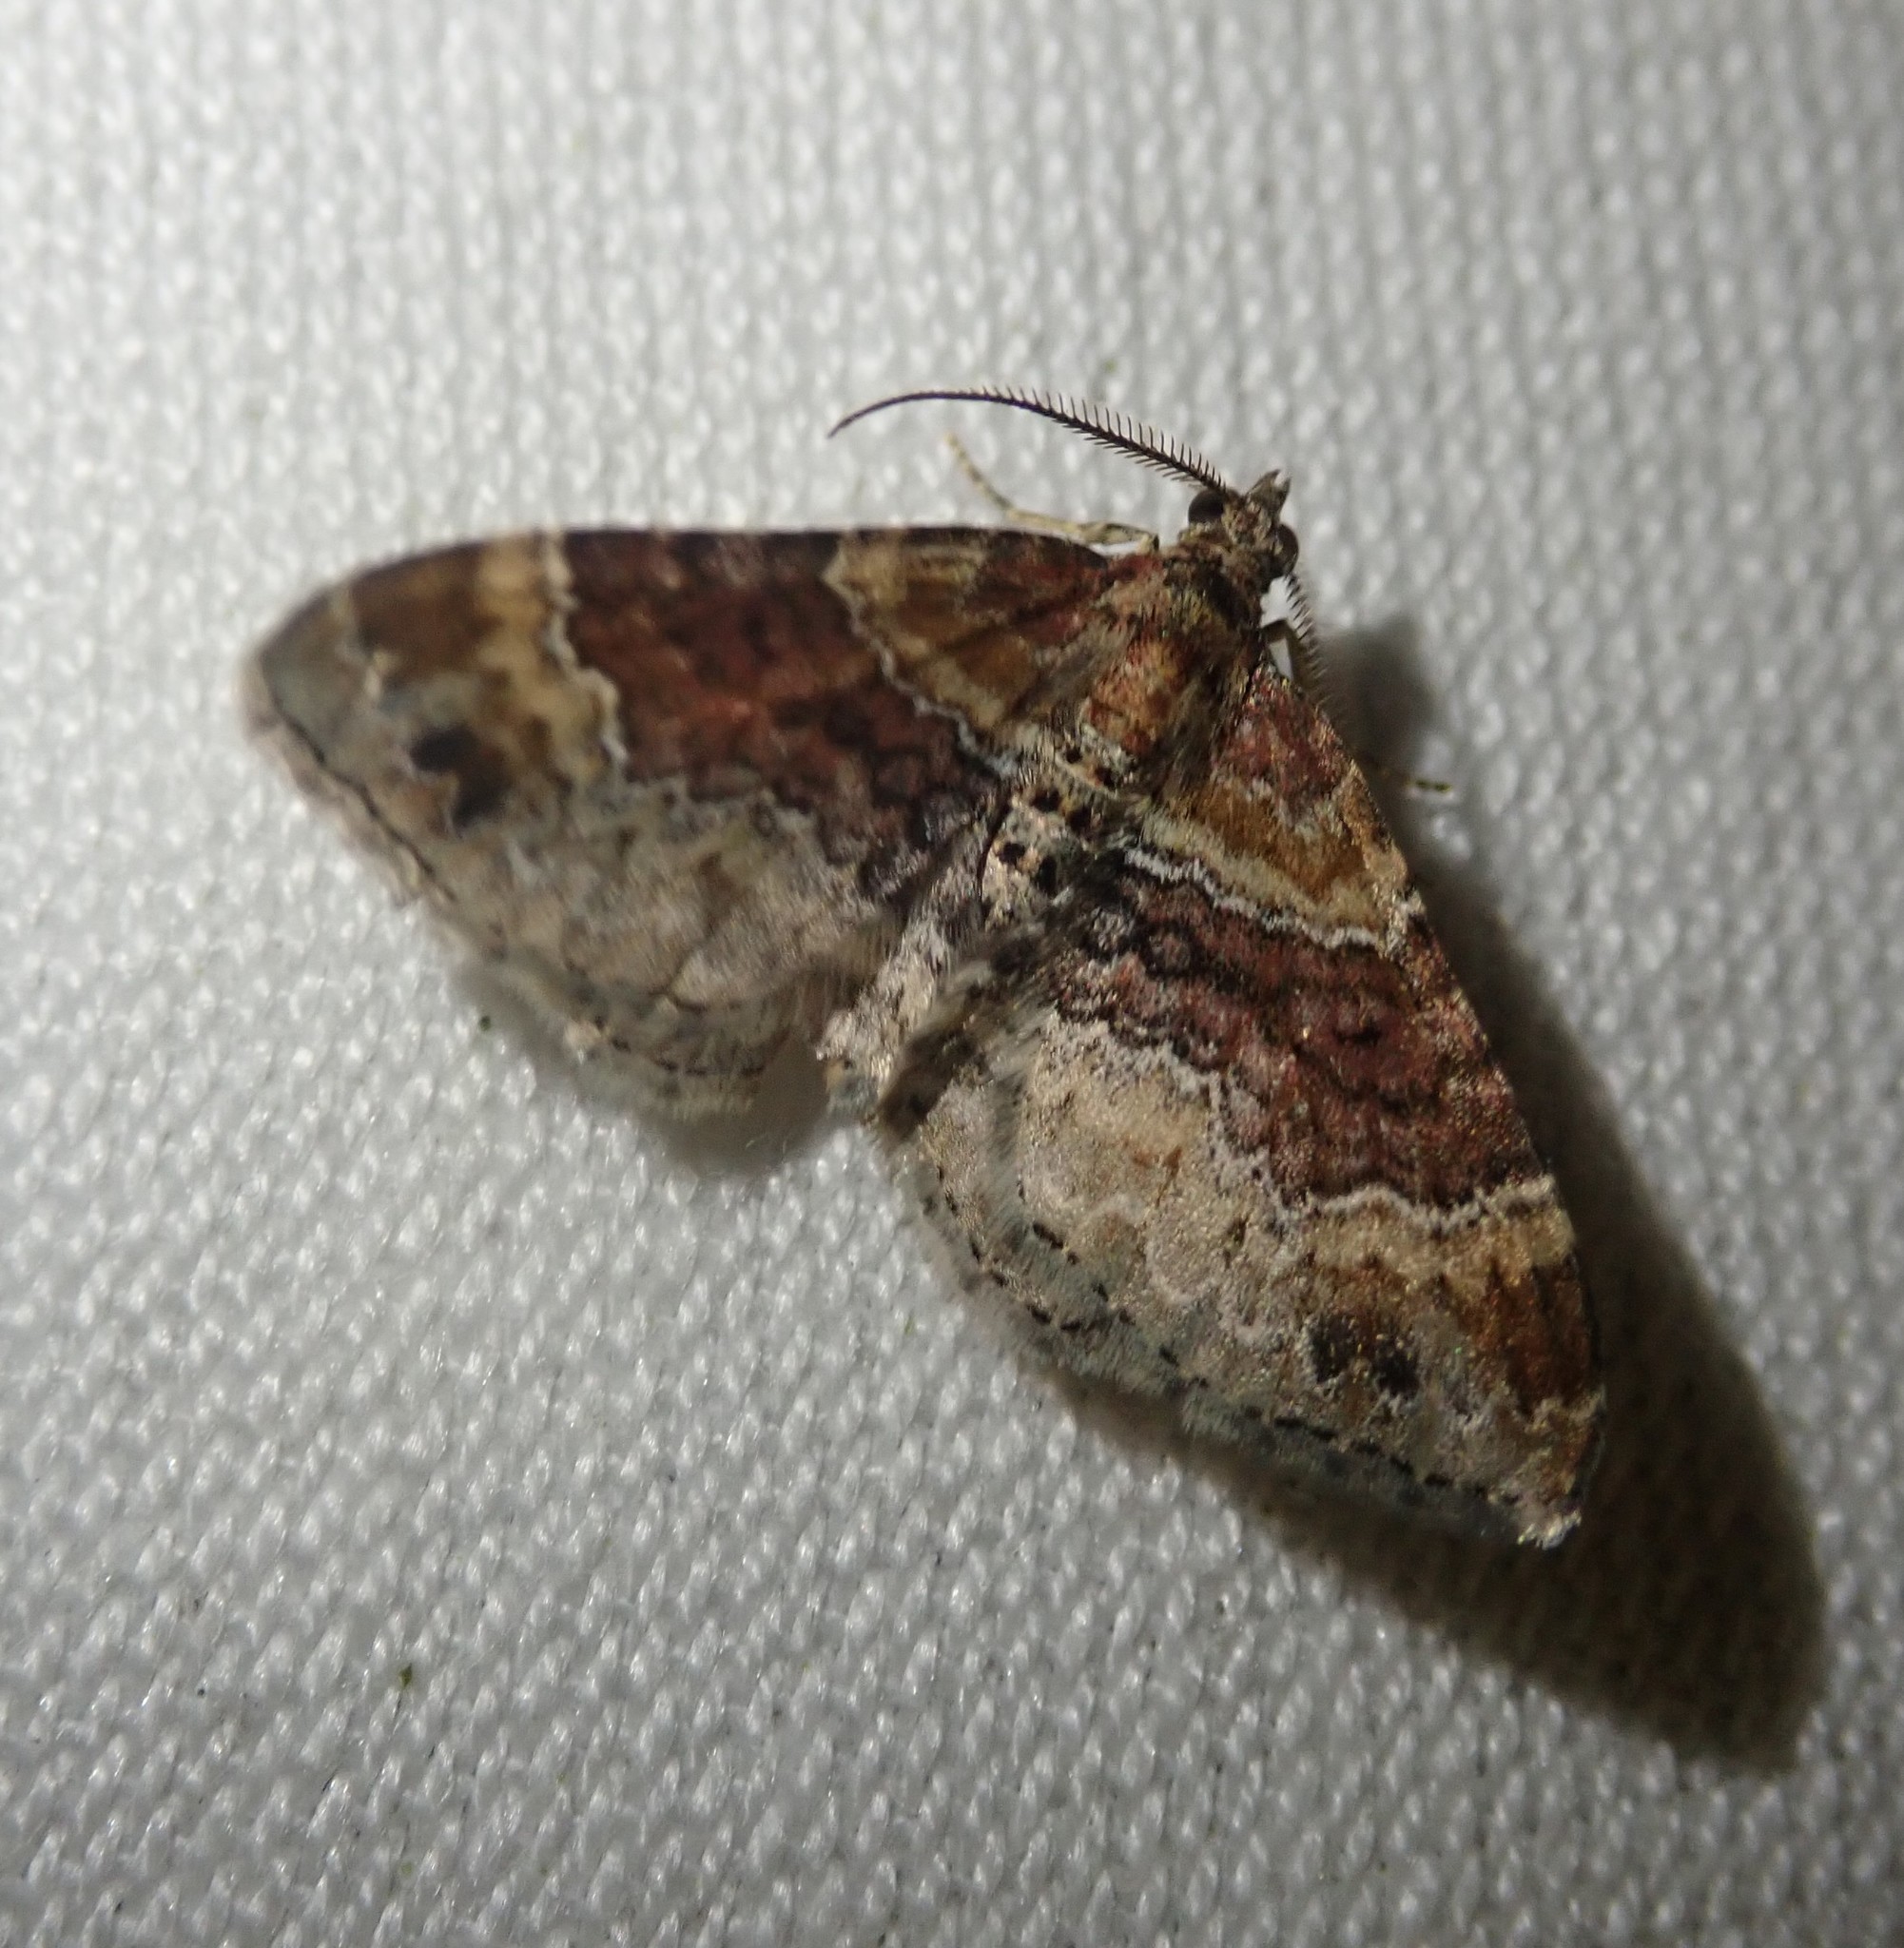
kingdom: Animalia
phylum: Arthropoda
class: Insecta
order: Lepidoptera
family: Geometridae
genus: Xanthorhoe
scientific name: Xanthorhoe spadicearia
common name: Red twin-spot carpet
